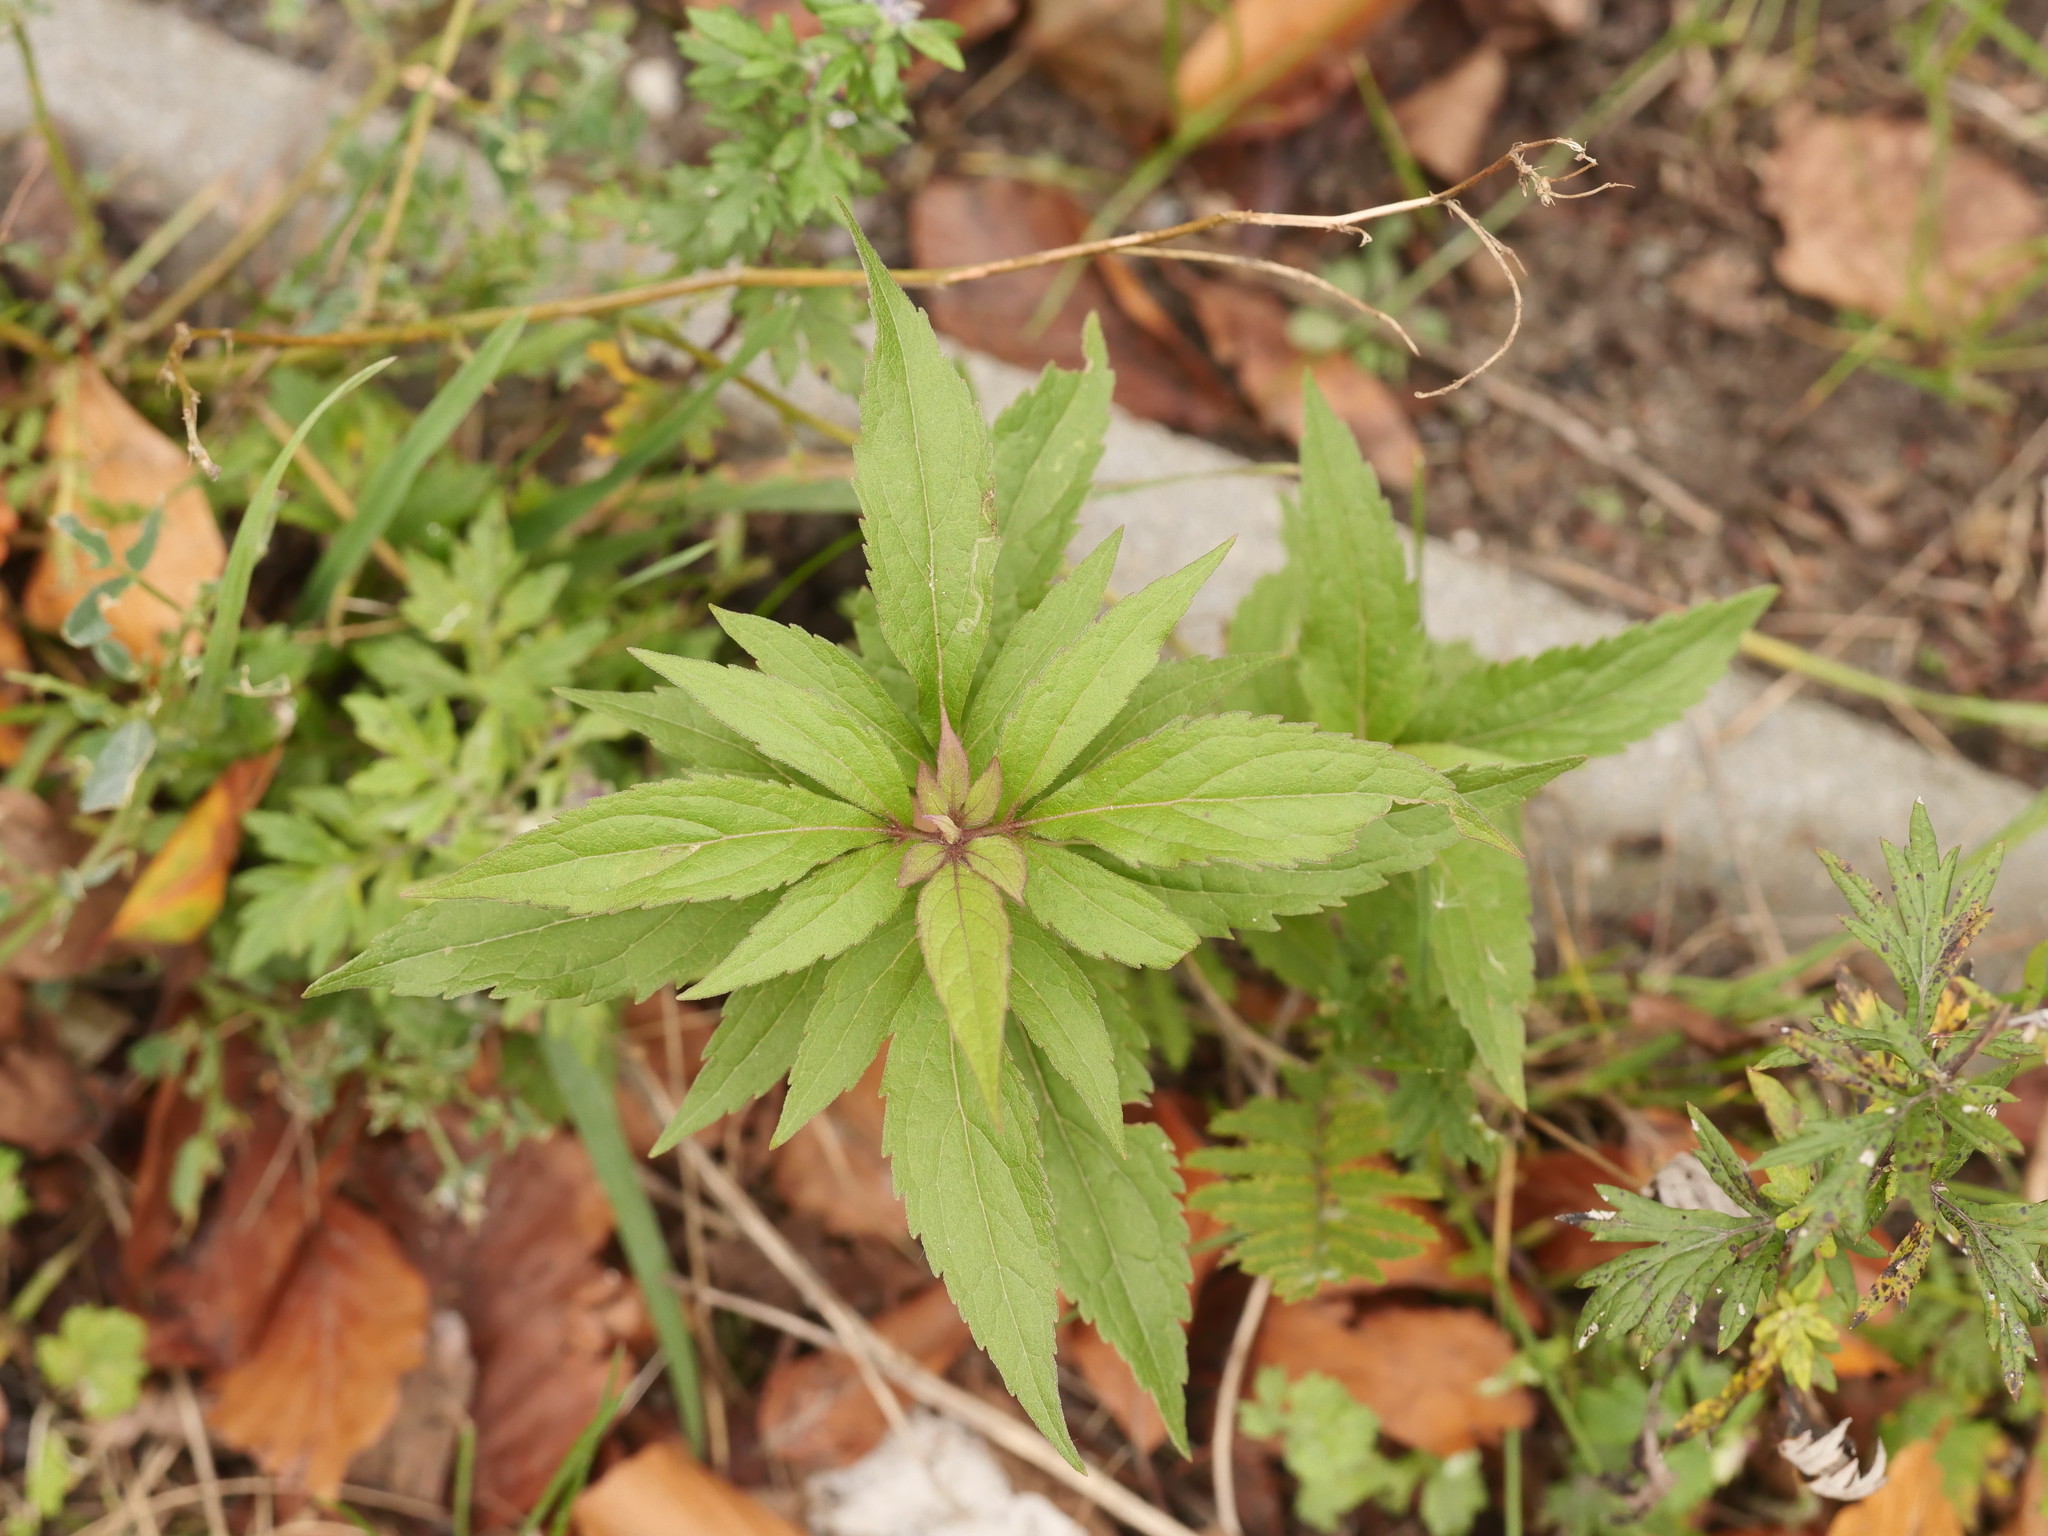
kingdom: Plantae
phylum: Tracheophyta
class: Magnoliopsida
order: Asterales
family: Asteraceae
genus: Eupatorium
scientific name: Eupatorium cannabinum
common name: Hemp-agrimony
